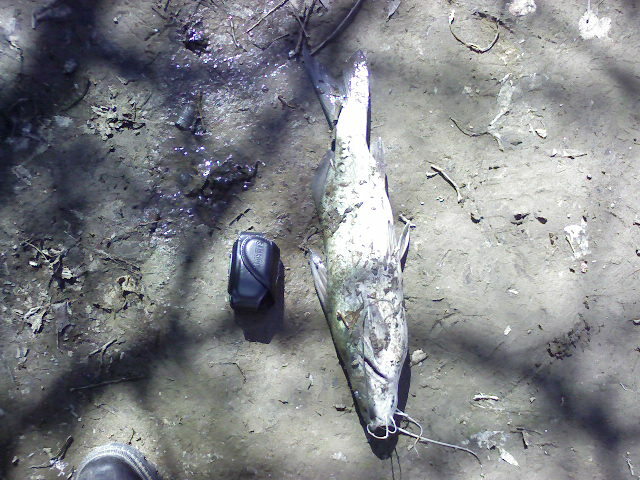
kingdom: Animalia
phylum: Chordata
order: Siluriformes
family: Pimelodidae
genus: Pimelodus
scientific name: Pimelodus albicans
